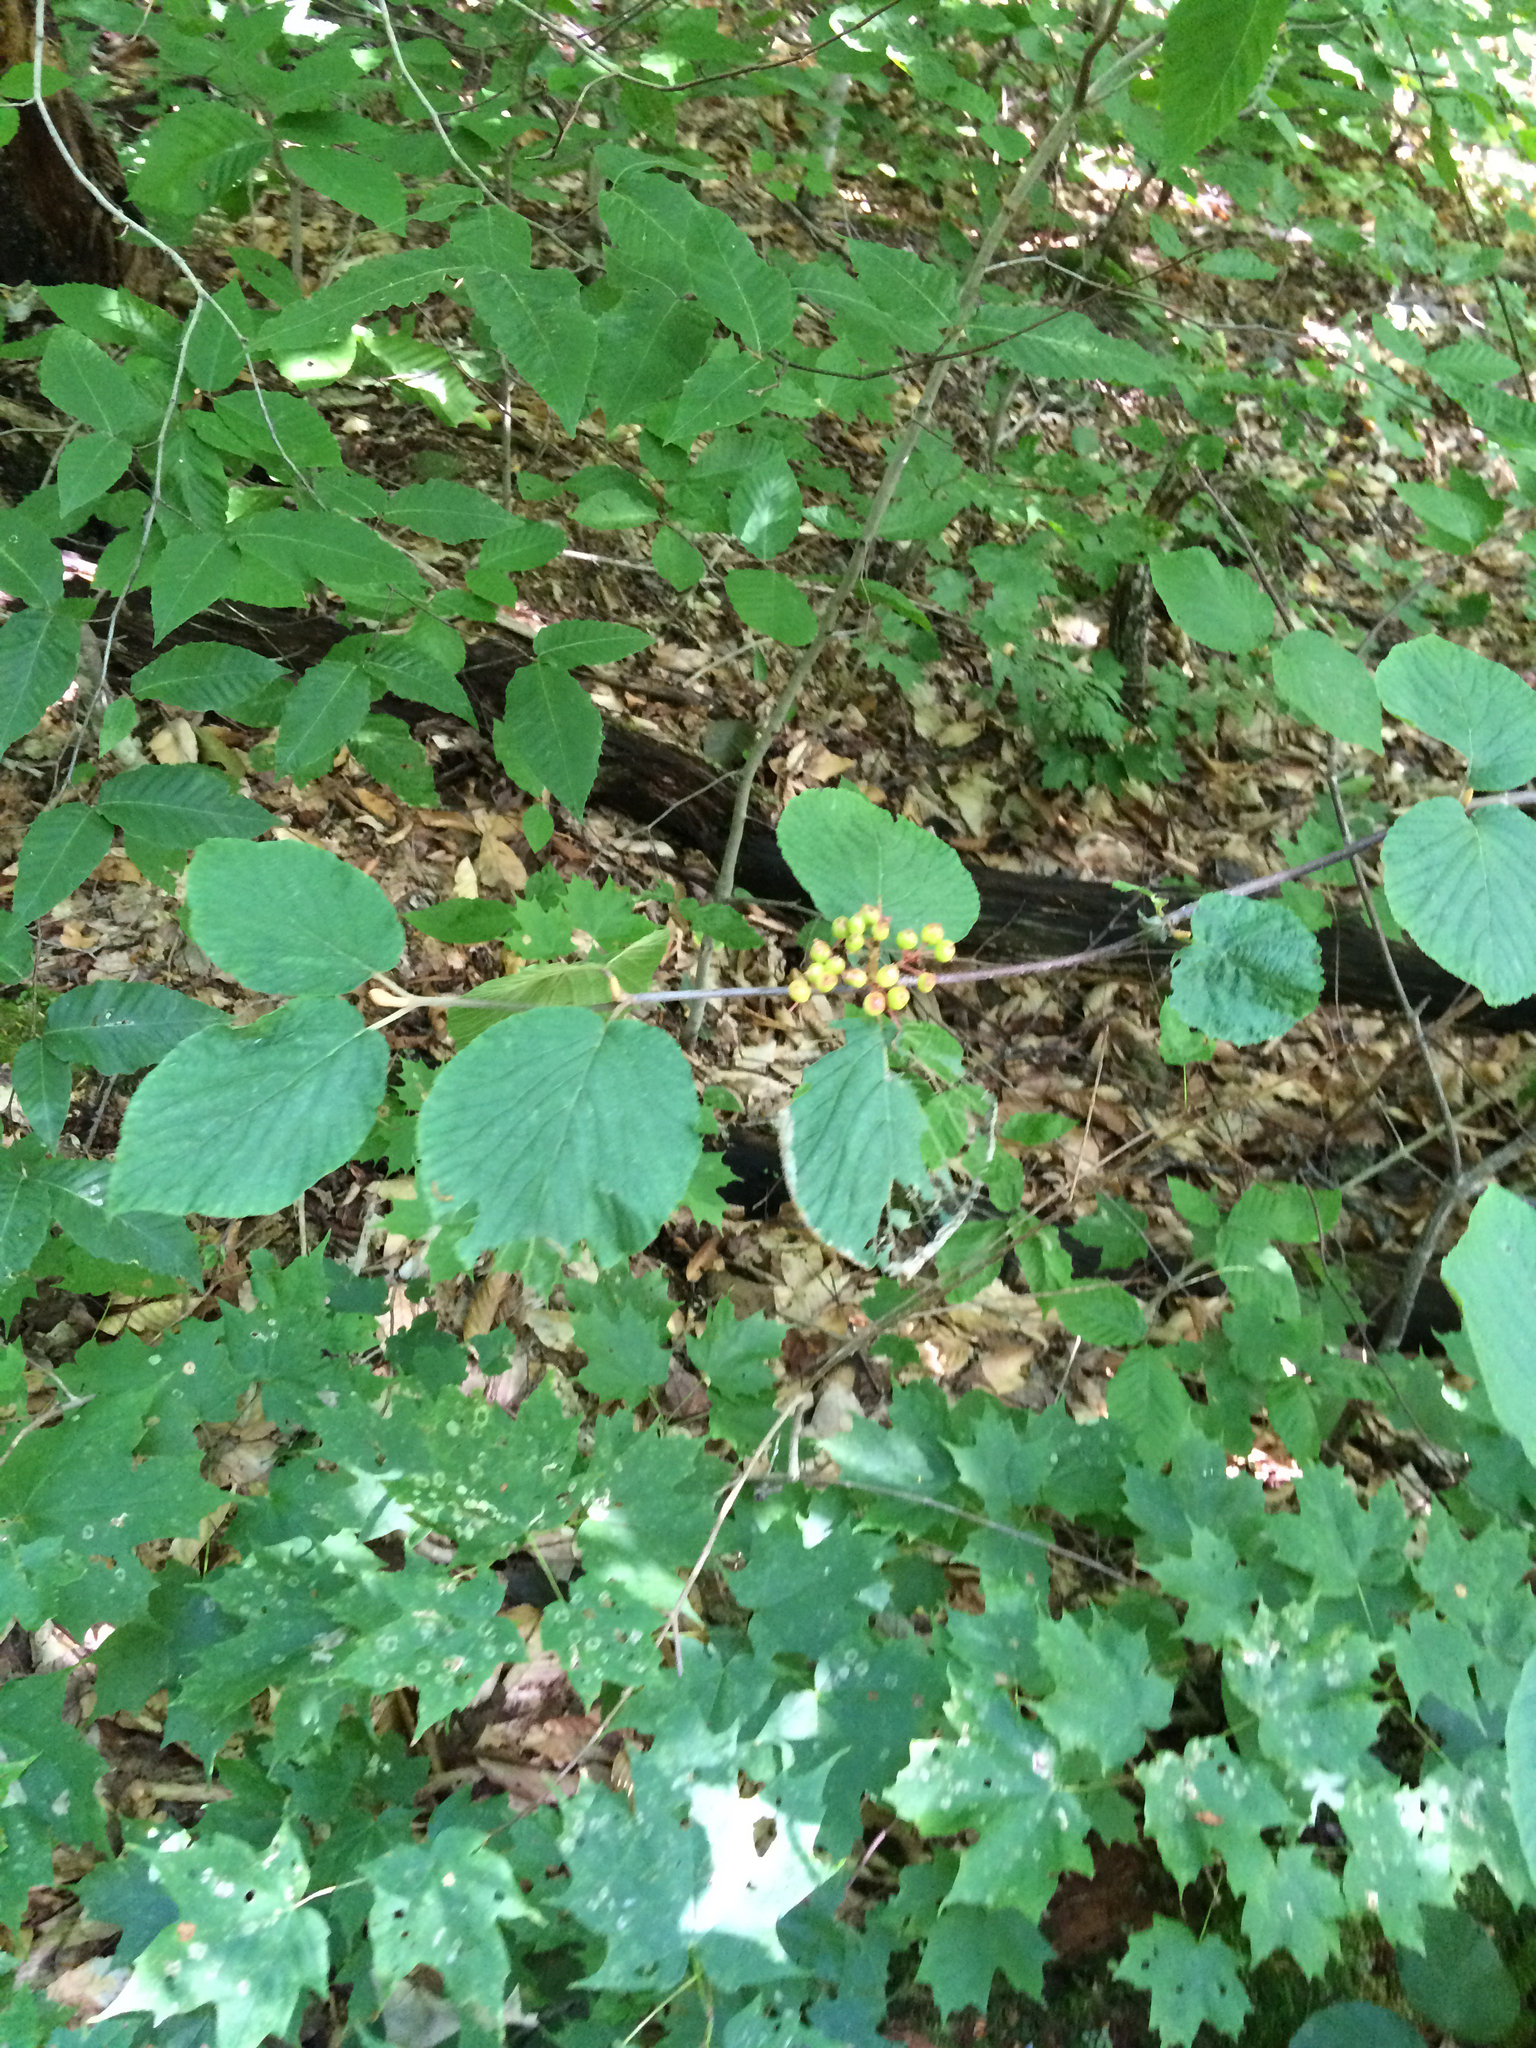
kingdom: Plantae
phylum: Tracheophyta
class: Magnoliopsida
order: Dipsacales
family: Viburnaceae
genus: Viburnum
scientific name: Viburnum lantanoides
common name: Hobblebush
